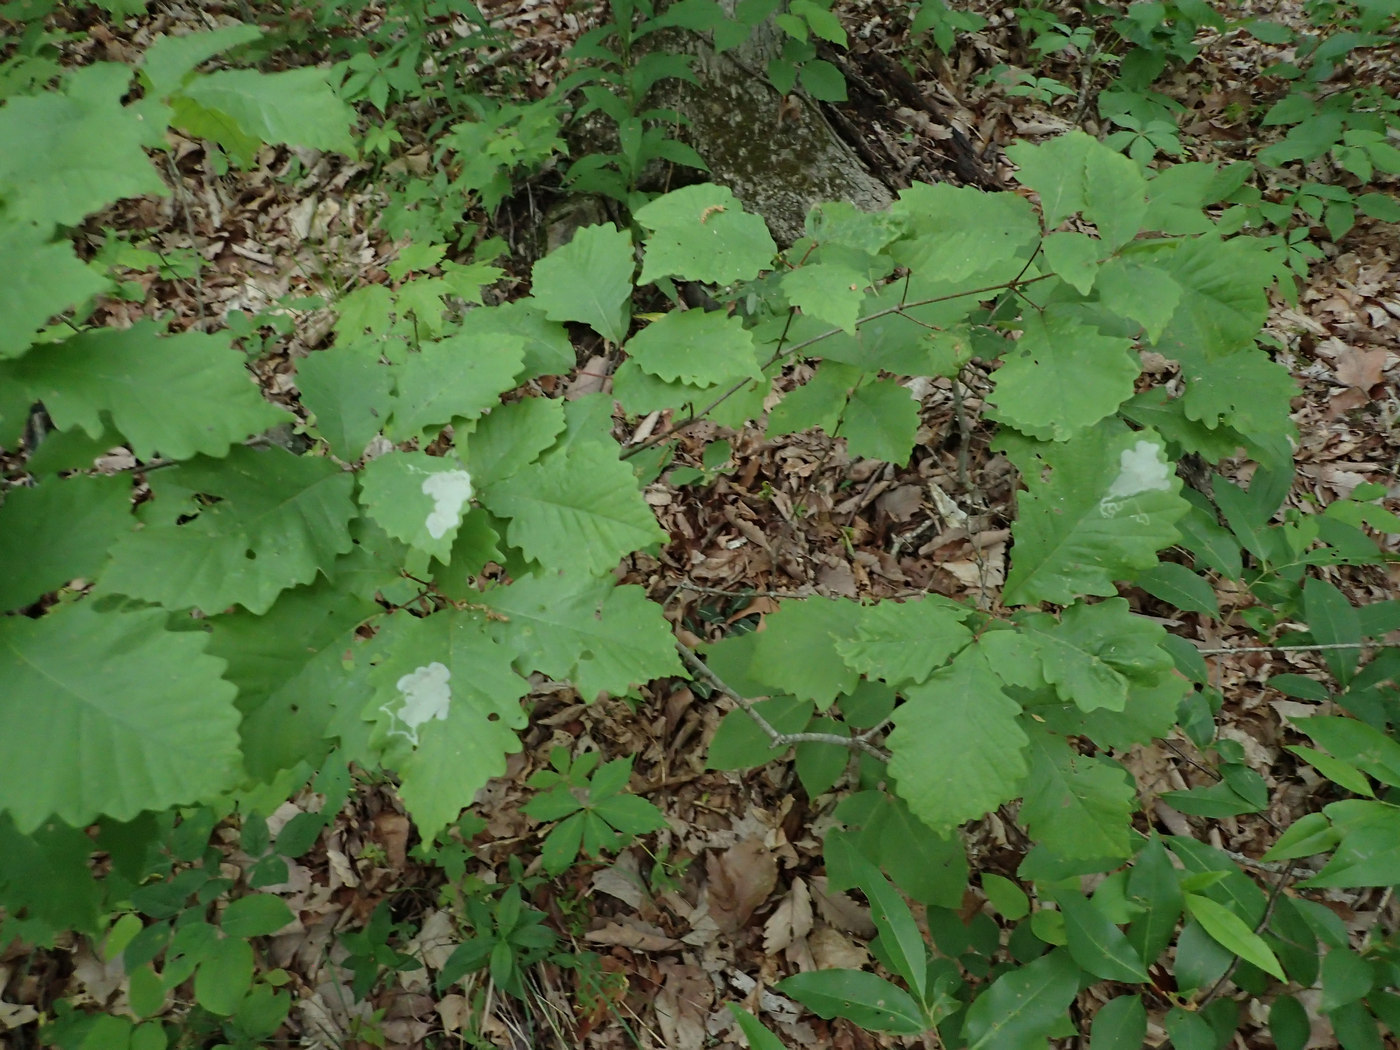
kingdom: Animalia
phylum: Arthropoda
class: Insecta
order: Lepidoptera
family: Gracillariidae
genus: Cryptolectica
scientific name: Cryptolectica
